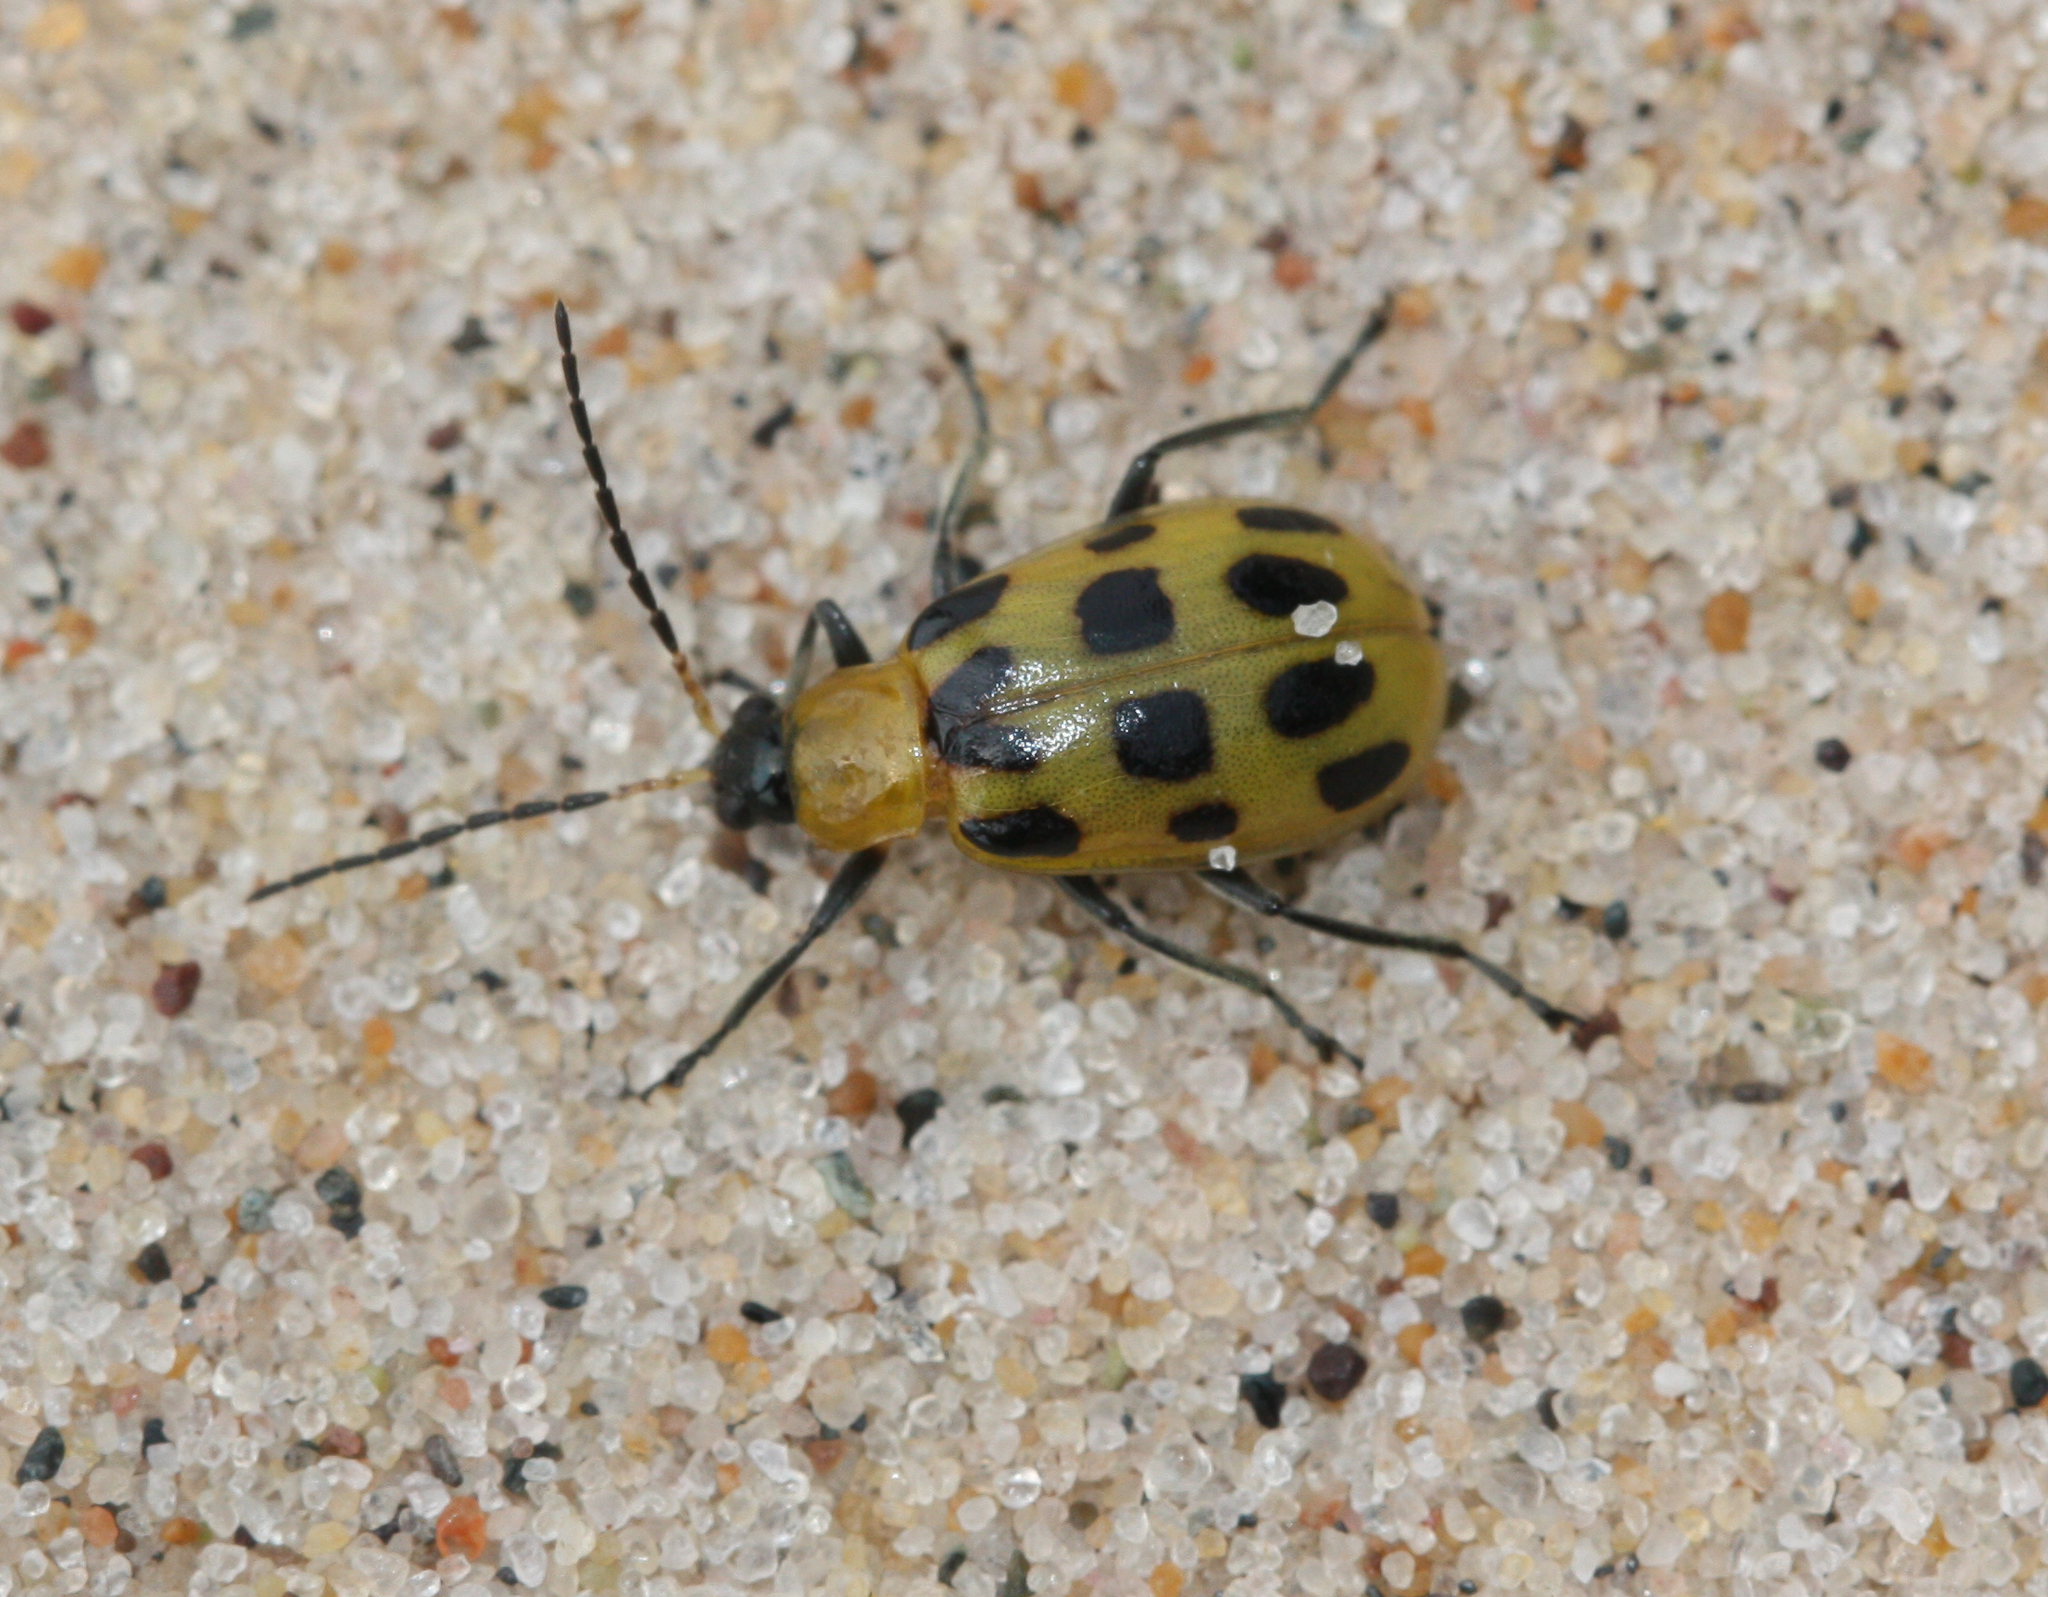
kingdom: Animalia
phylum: Arthropoda
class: Insecta
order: Coleoptera
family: Chrysomelidae
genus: Diabrotica
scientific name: Diabrotica undecimpunctata
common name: Spotted cucumber beetle
